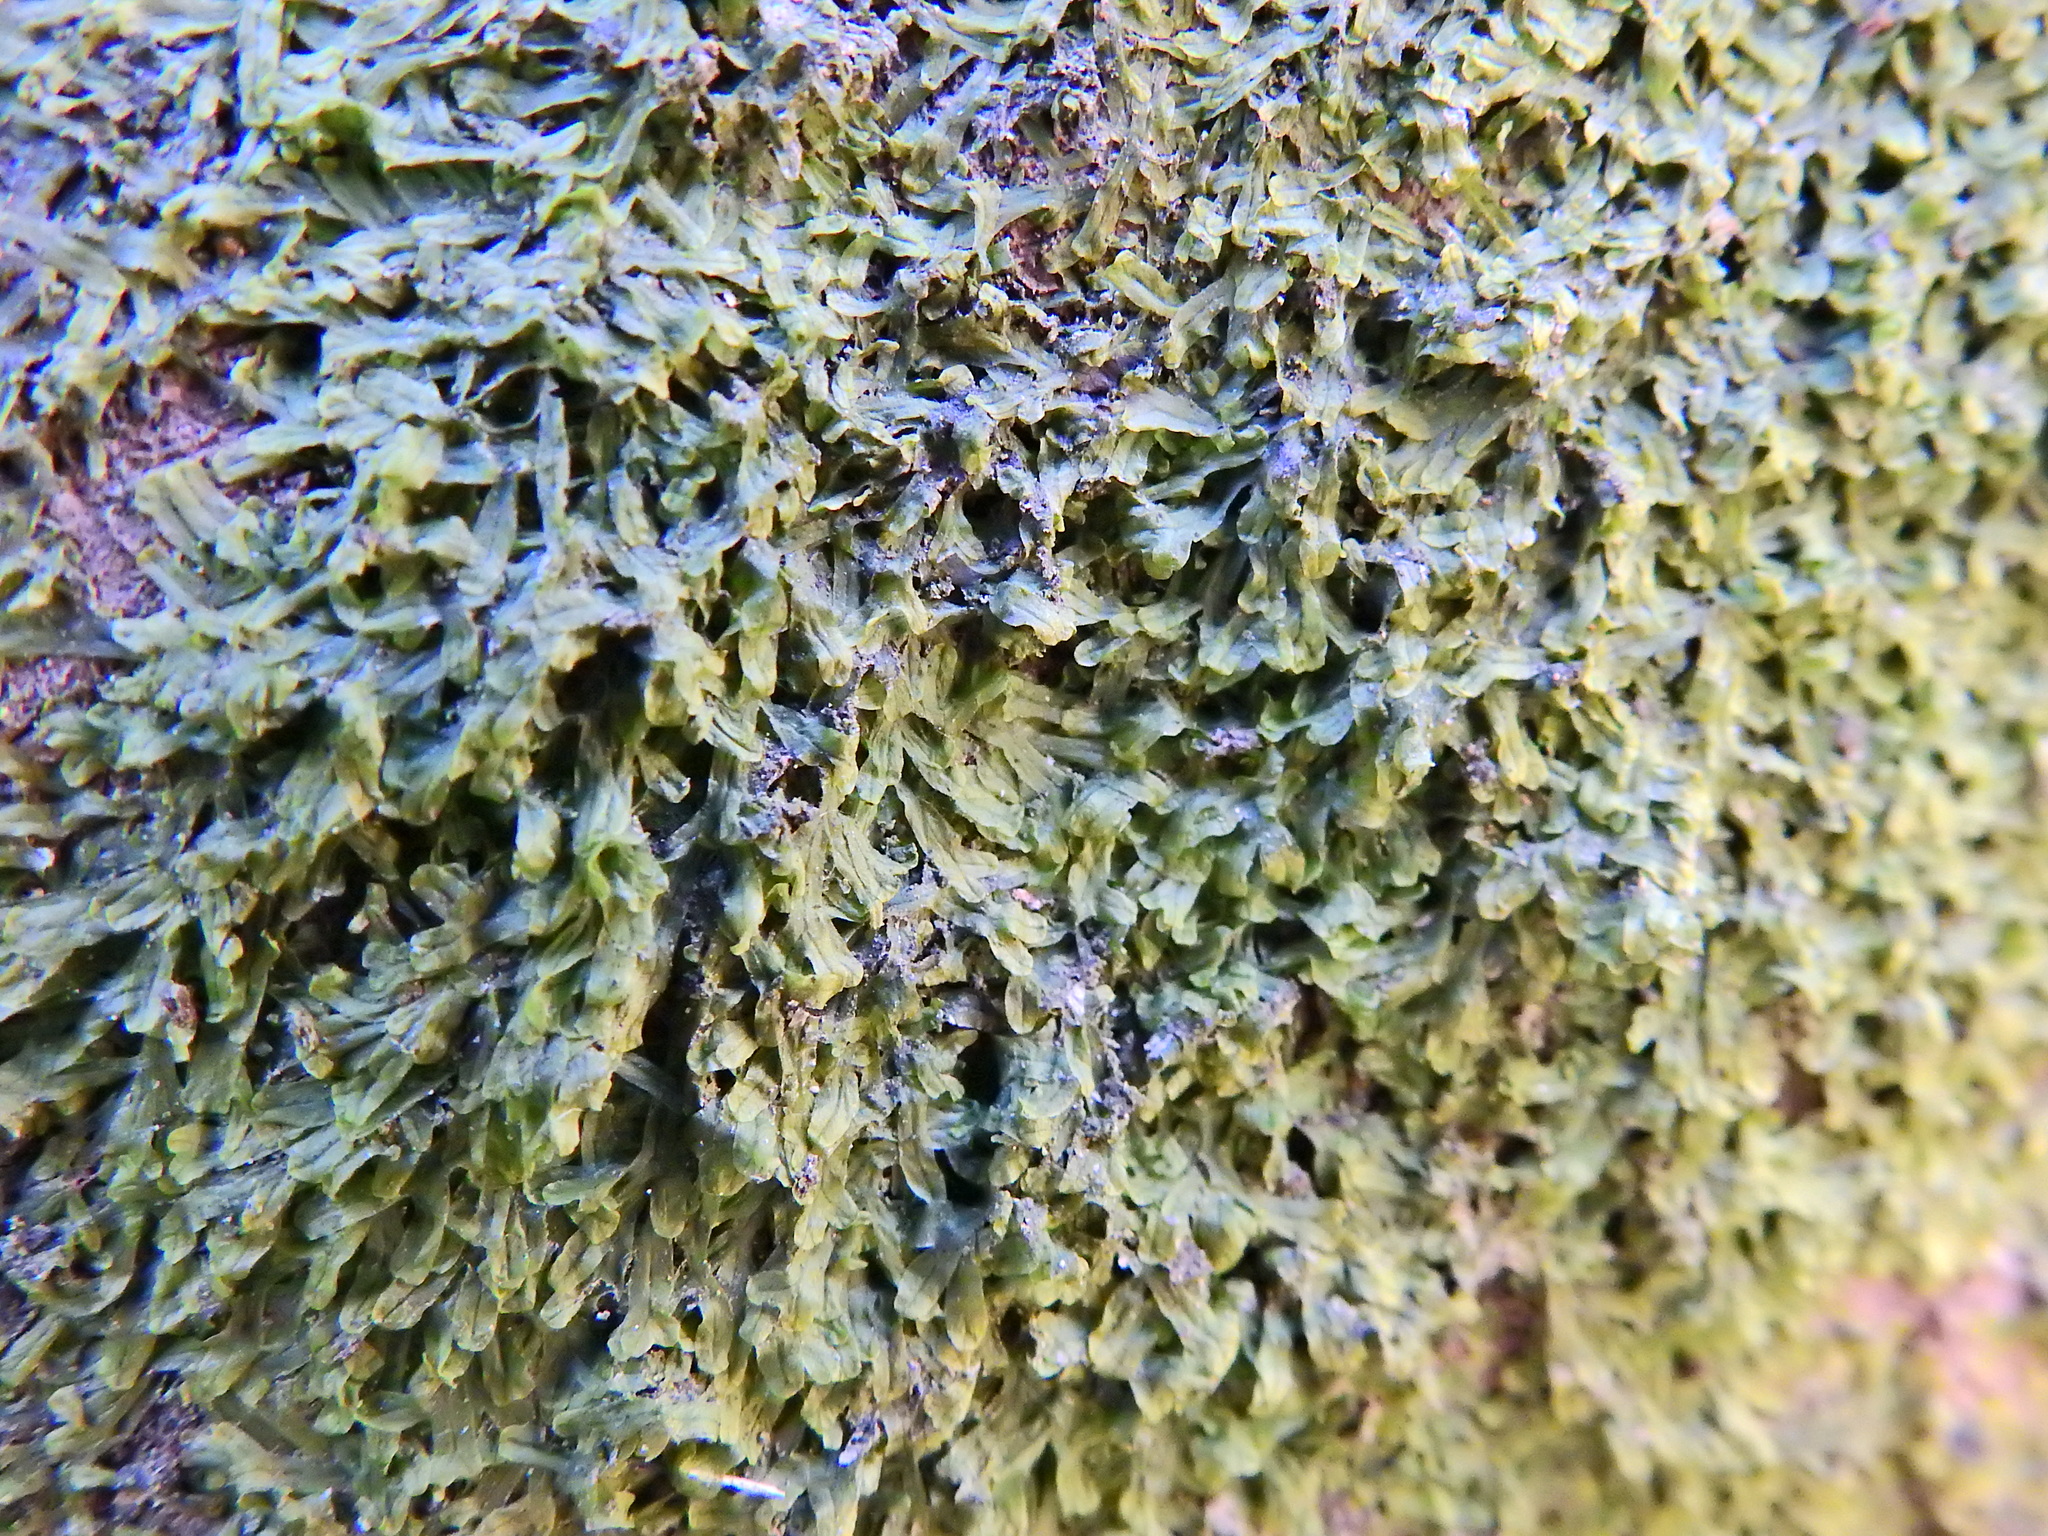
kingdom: Plantae
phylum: Marchantiophyta
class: Jungermanniopsida
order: Metzgeriales
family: Metzgeriaceae
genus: Metzgeria
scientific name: Metzgeria furcata
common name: Forked veilwort
